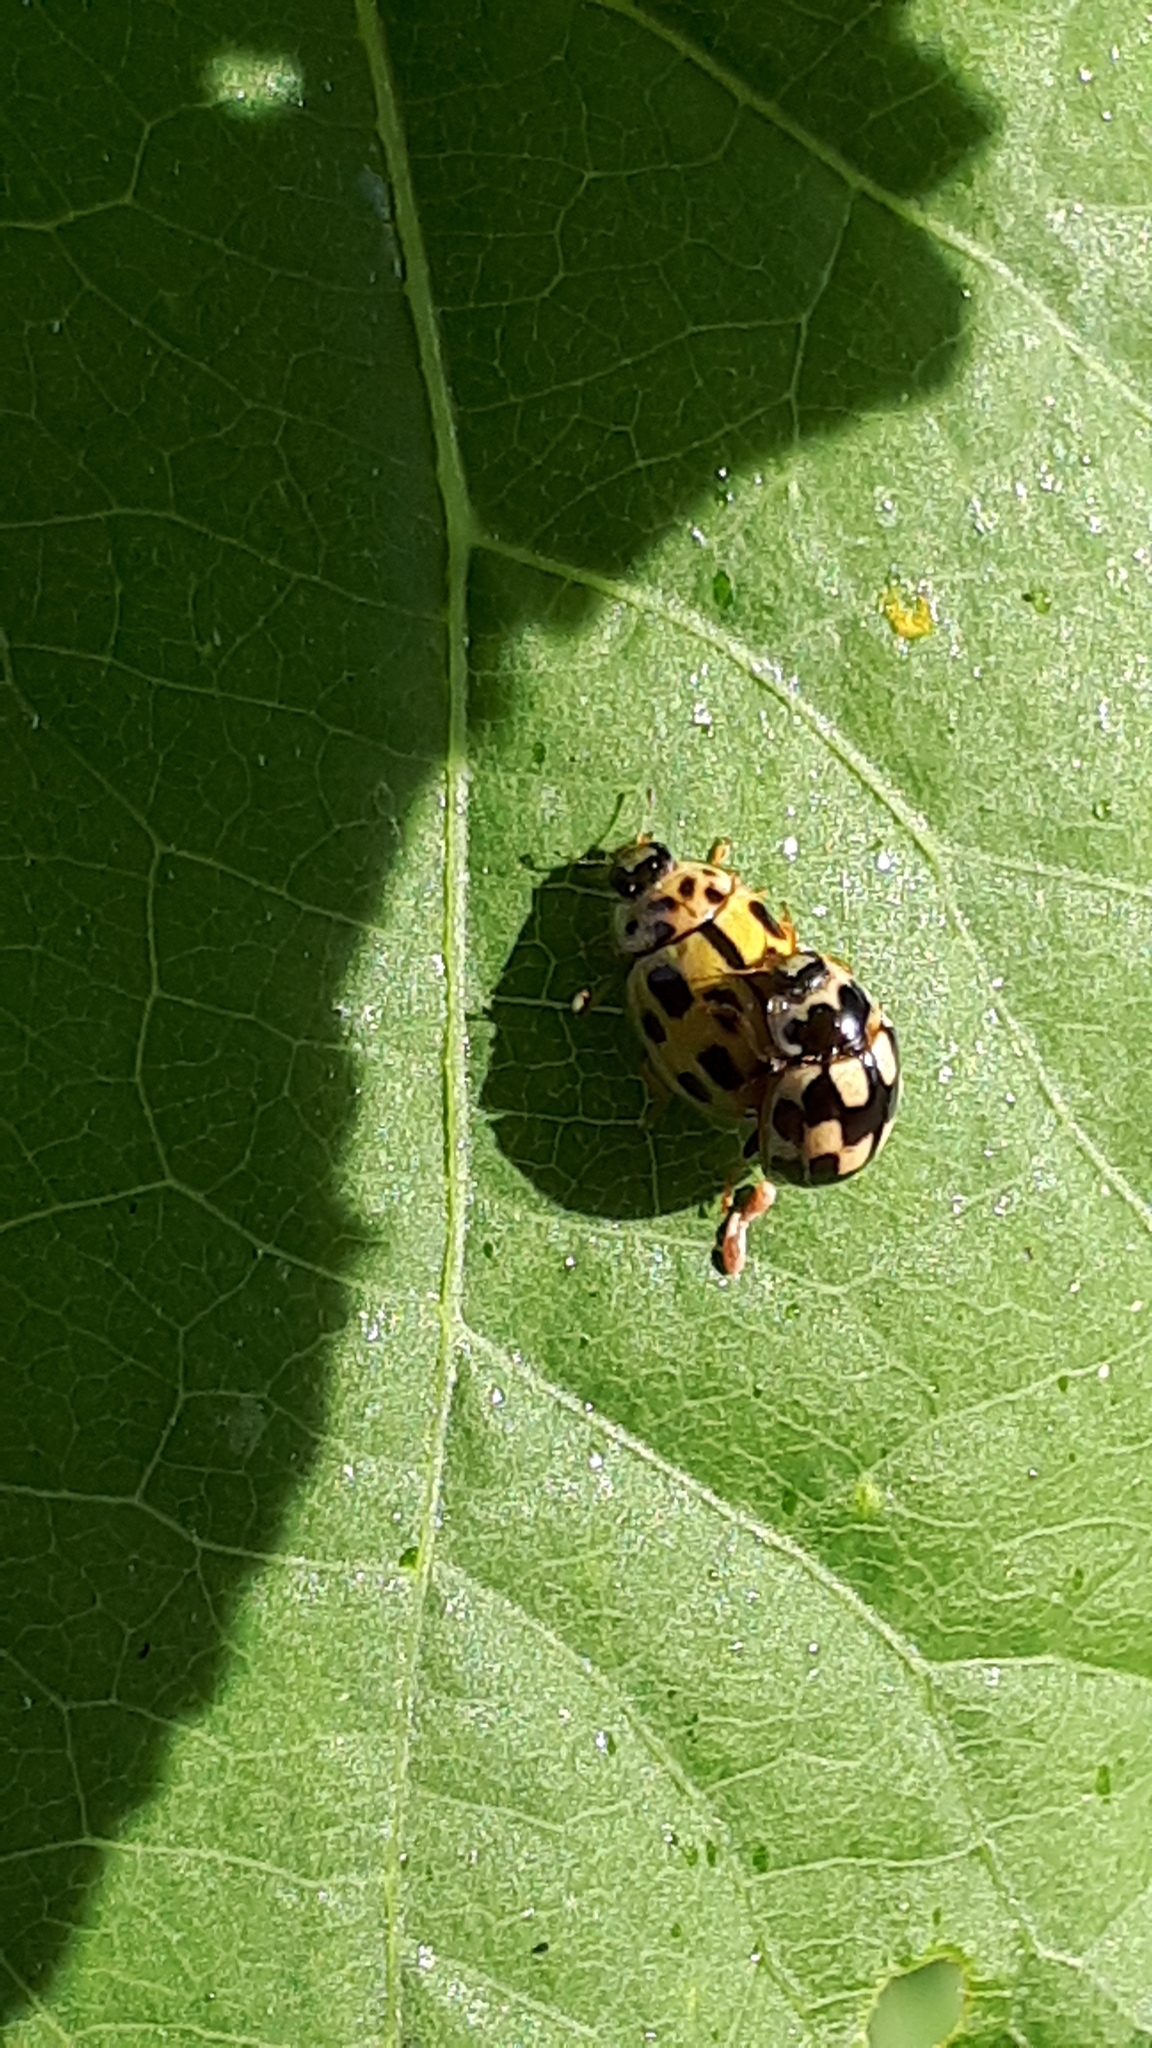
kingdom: Animalia
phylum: Arthropoda
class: Insecta
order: Coleoptera
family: Coccinellidae
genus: Propylaea
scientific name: Propylaea quatuordecimpunctata
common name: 14-spotted ladybird beetle
